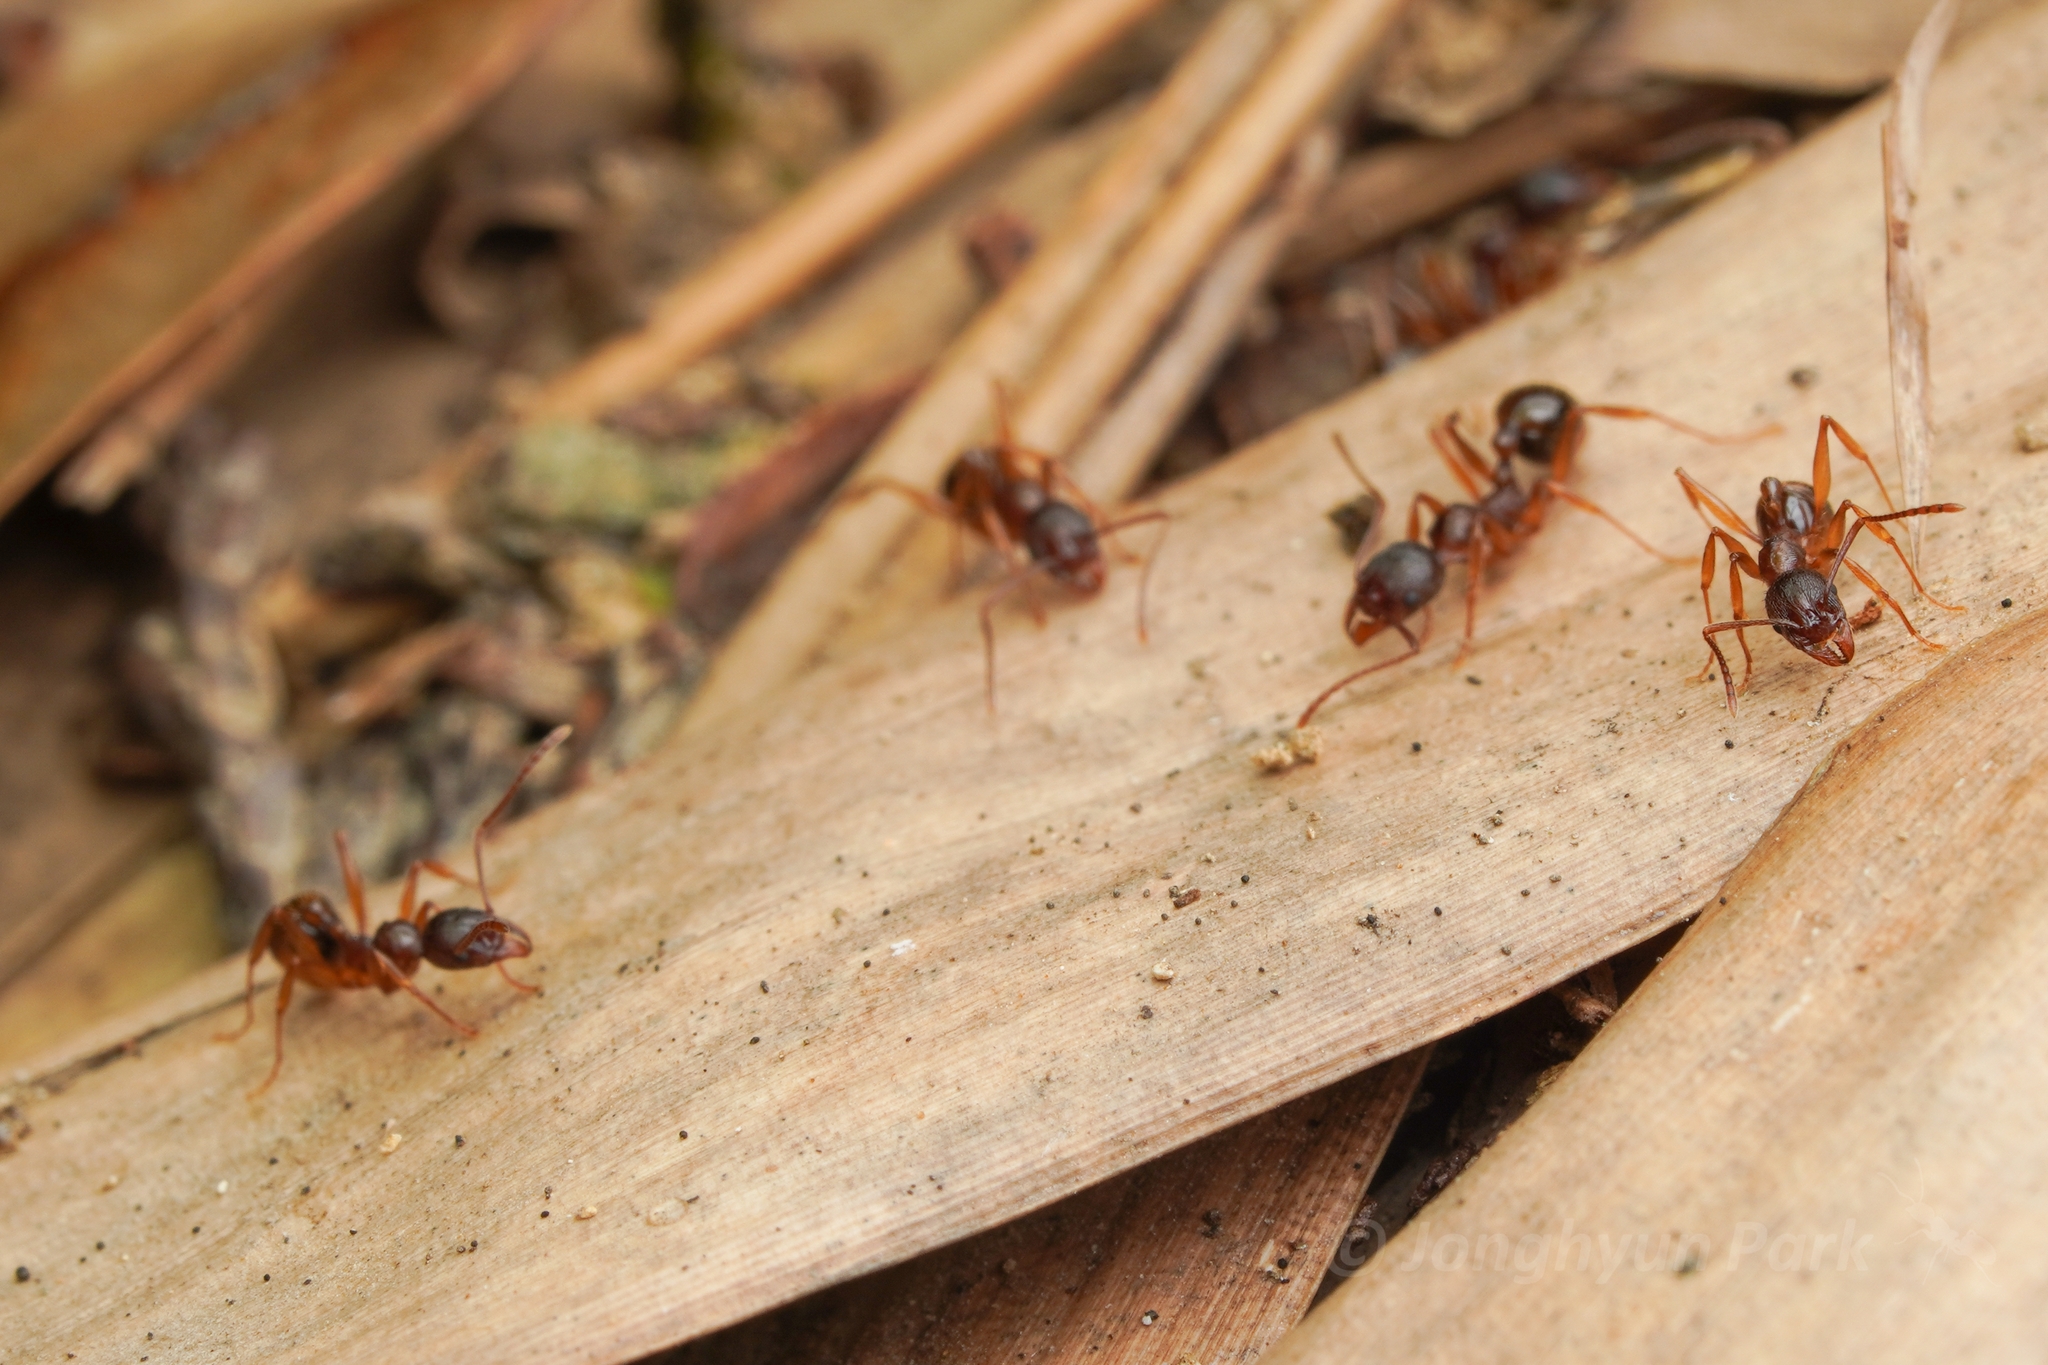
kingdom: Animalia
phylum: Arthropoda
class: Insecta
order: Hymenoptera
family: Formicidae
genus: Aphaenogaster
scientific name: Aphaenogaster japonica
